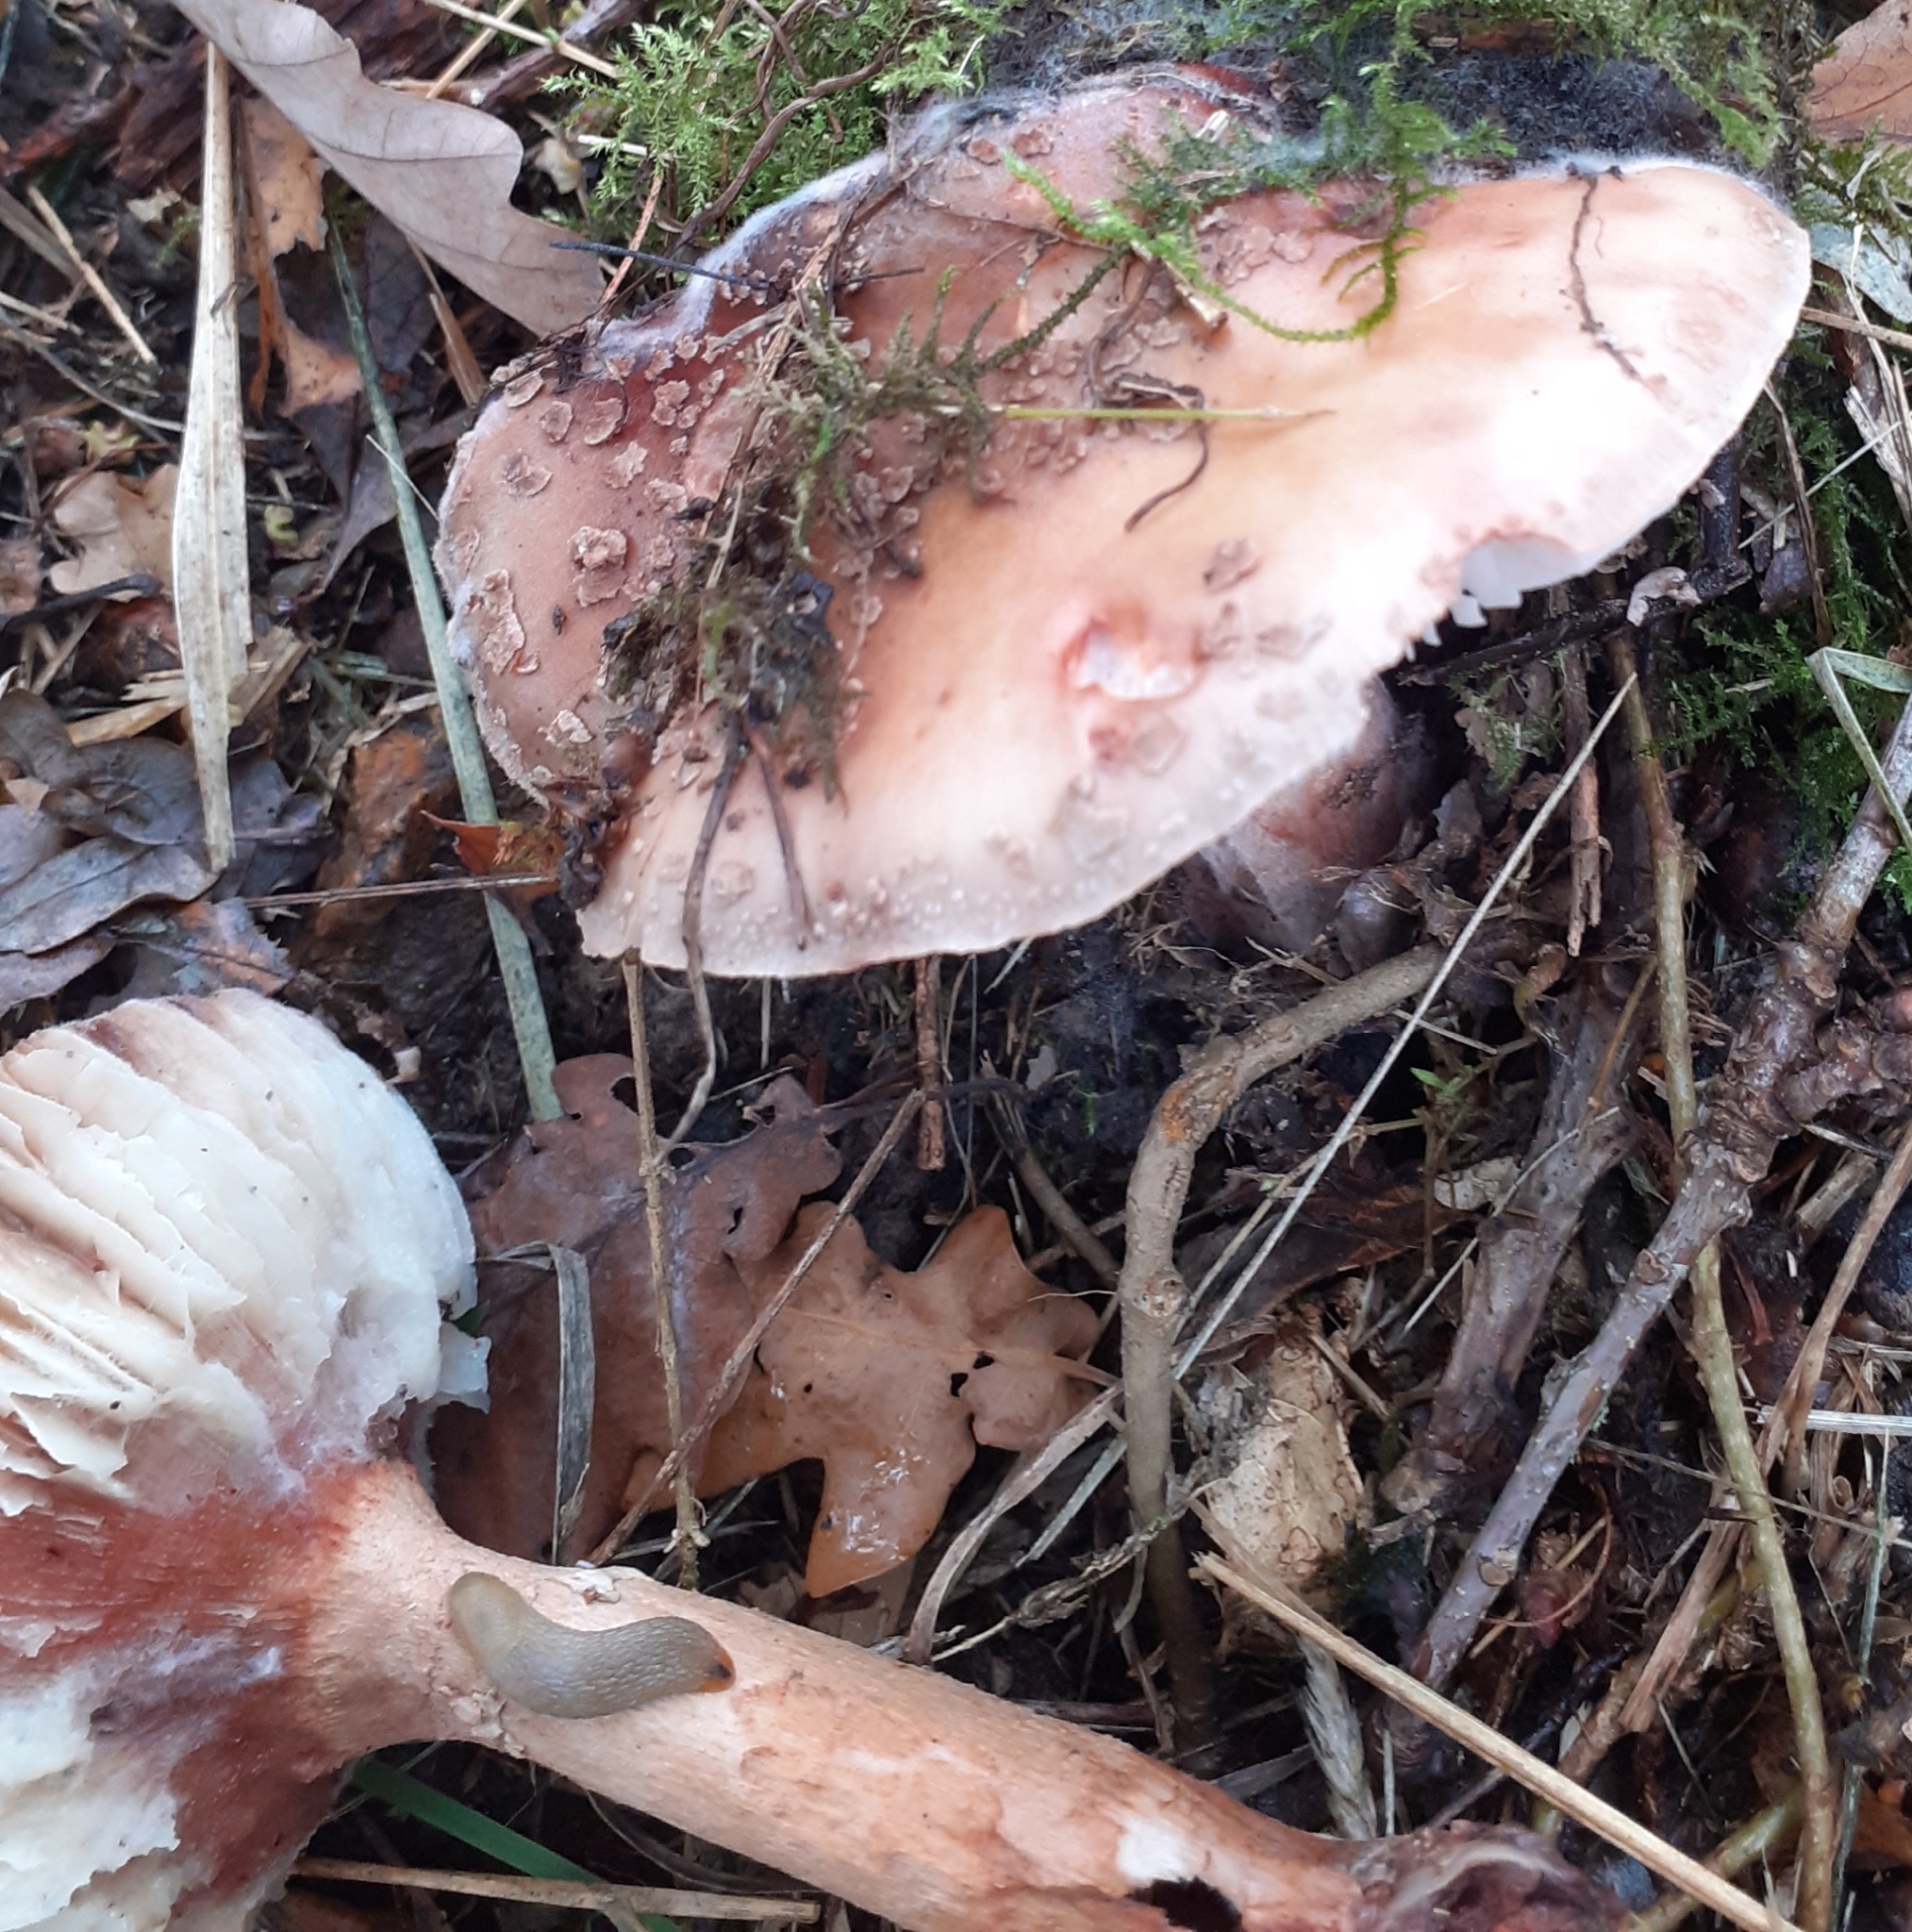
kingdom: Fungi
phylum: Basidiomycota
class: Agaricomycetes
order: Agaricales
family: Amanitaceae
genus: Amanita
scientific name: Amanita rubescens
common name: Blusher
